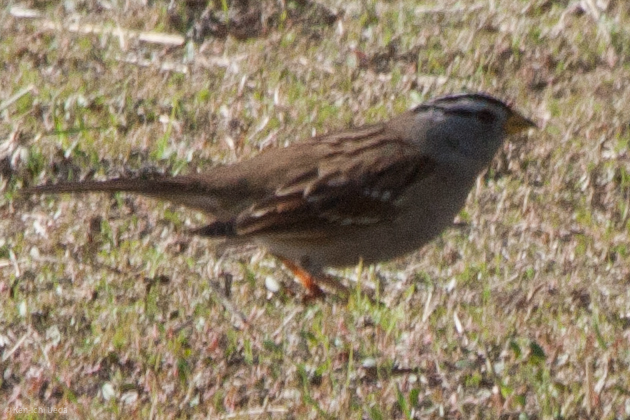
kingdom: Animalia
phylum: Chordata
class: Aves
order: Passeriformes
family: Passerellidae
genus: Zonotrichia
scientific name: Zonotrichia leucophrys
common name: White-crowned sparrow
